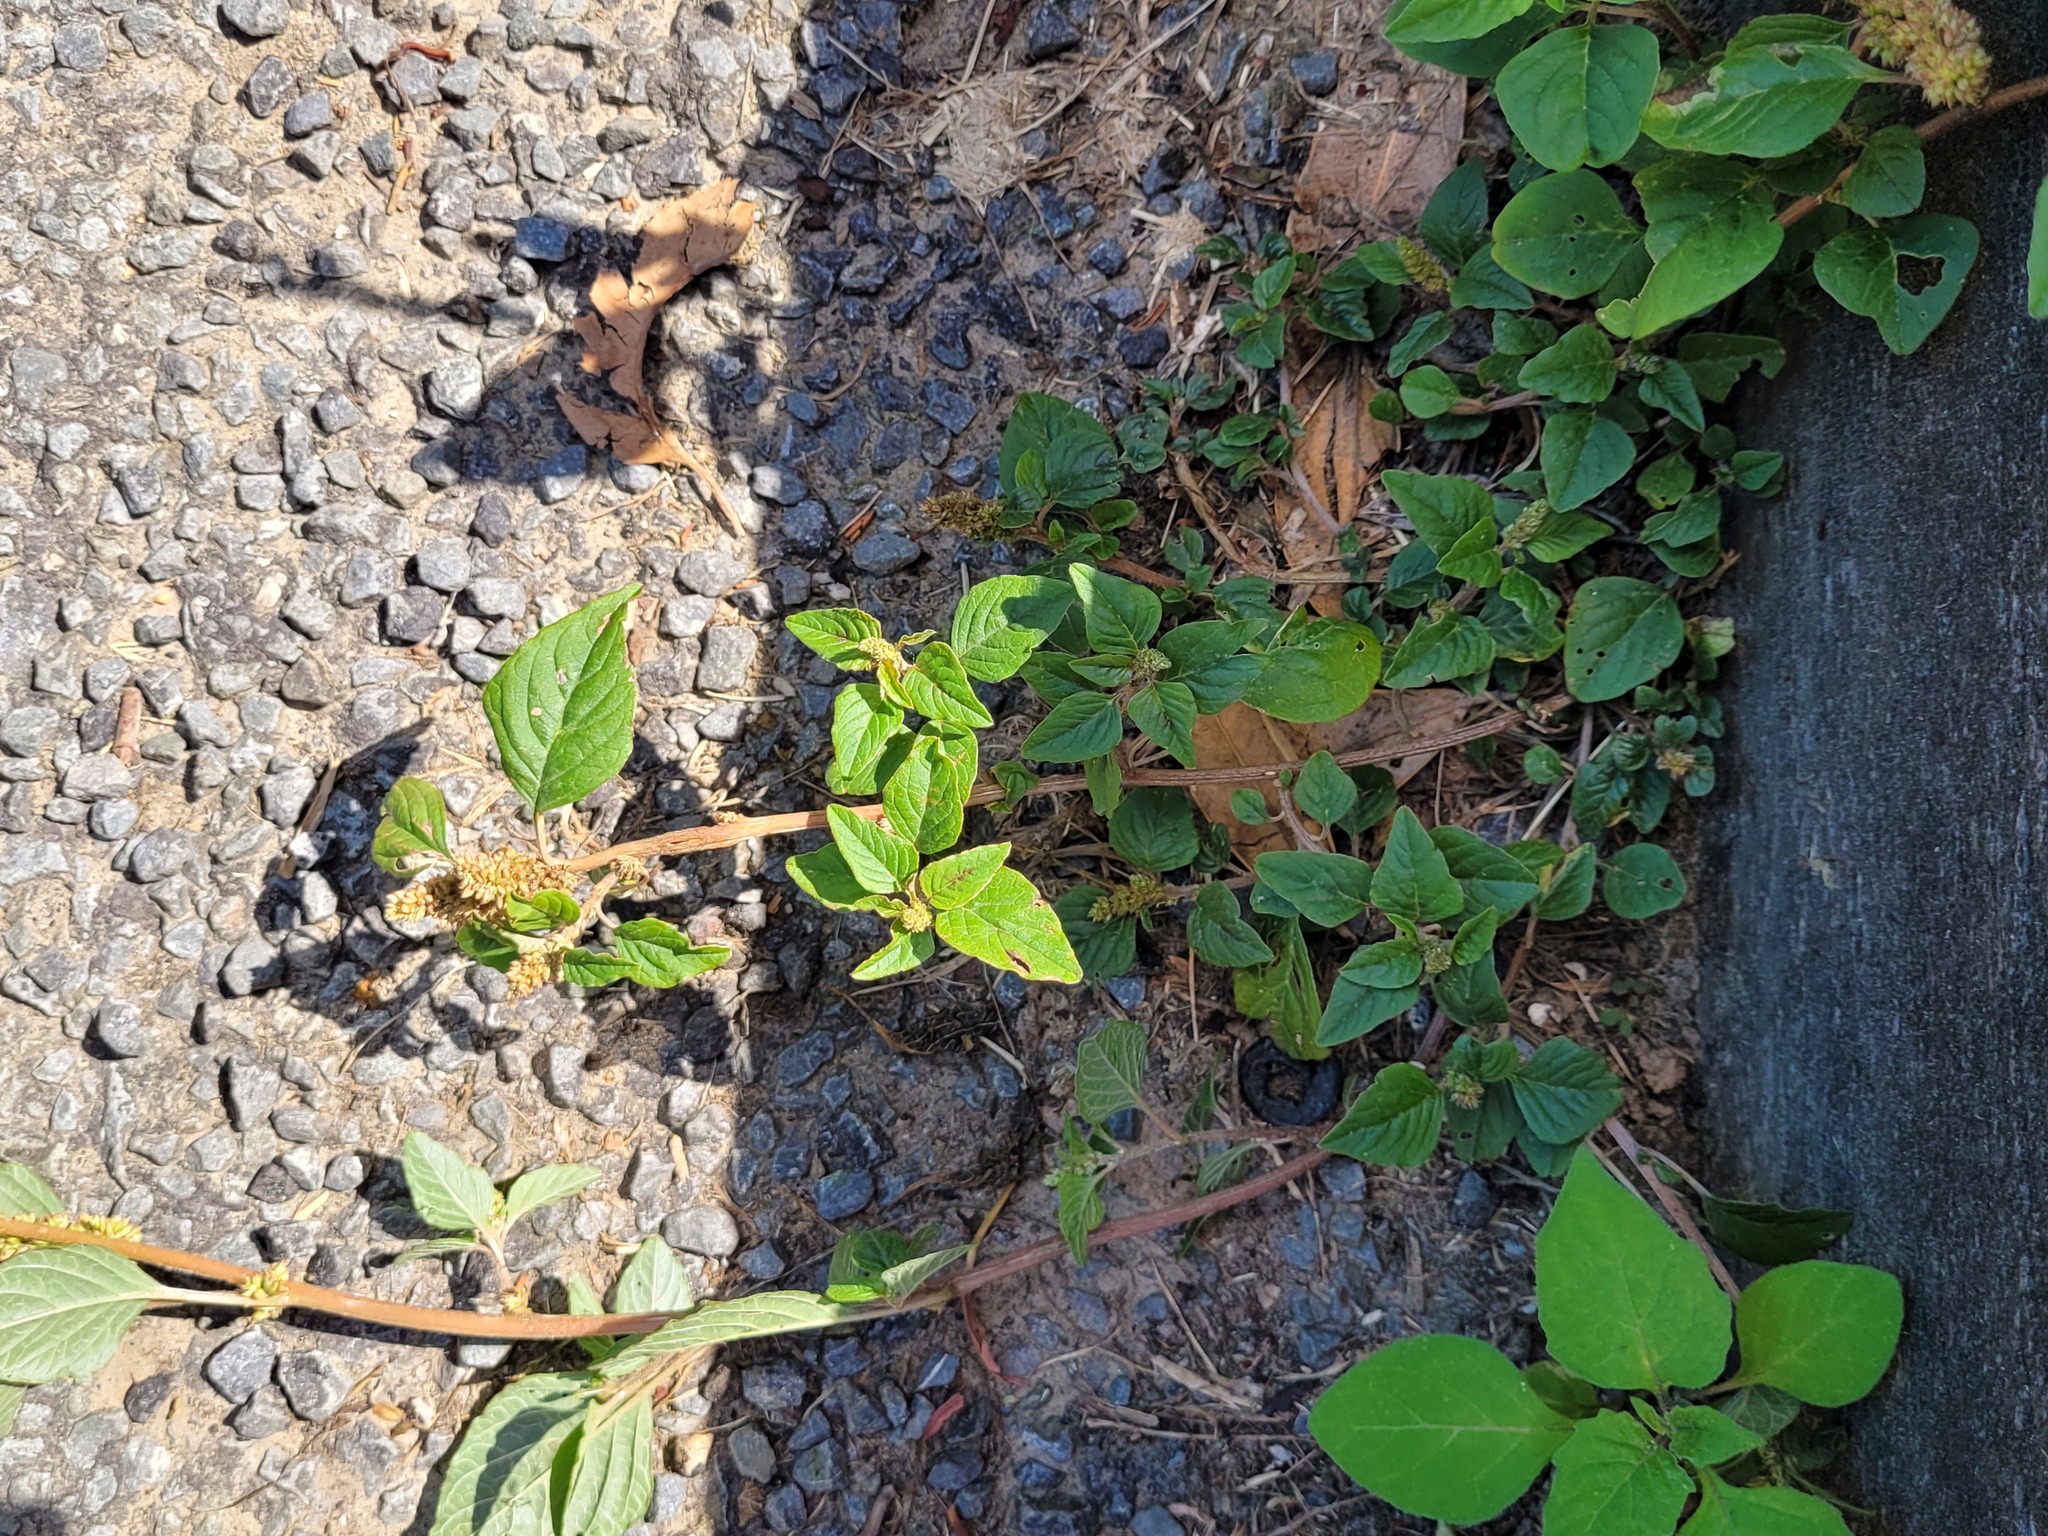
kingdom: Plantae
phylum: Tracheophyta
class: Magnoliopsida
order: Caryophyllales
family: Amaranthaceae
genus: Amaranthus
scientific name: Amaranthus deflexus
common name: Perennial pigweed
